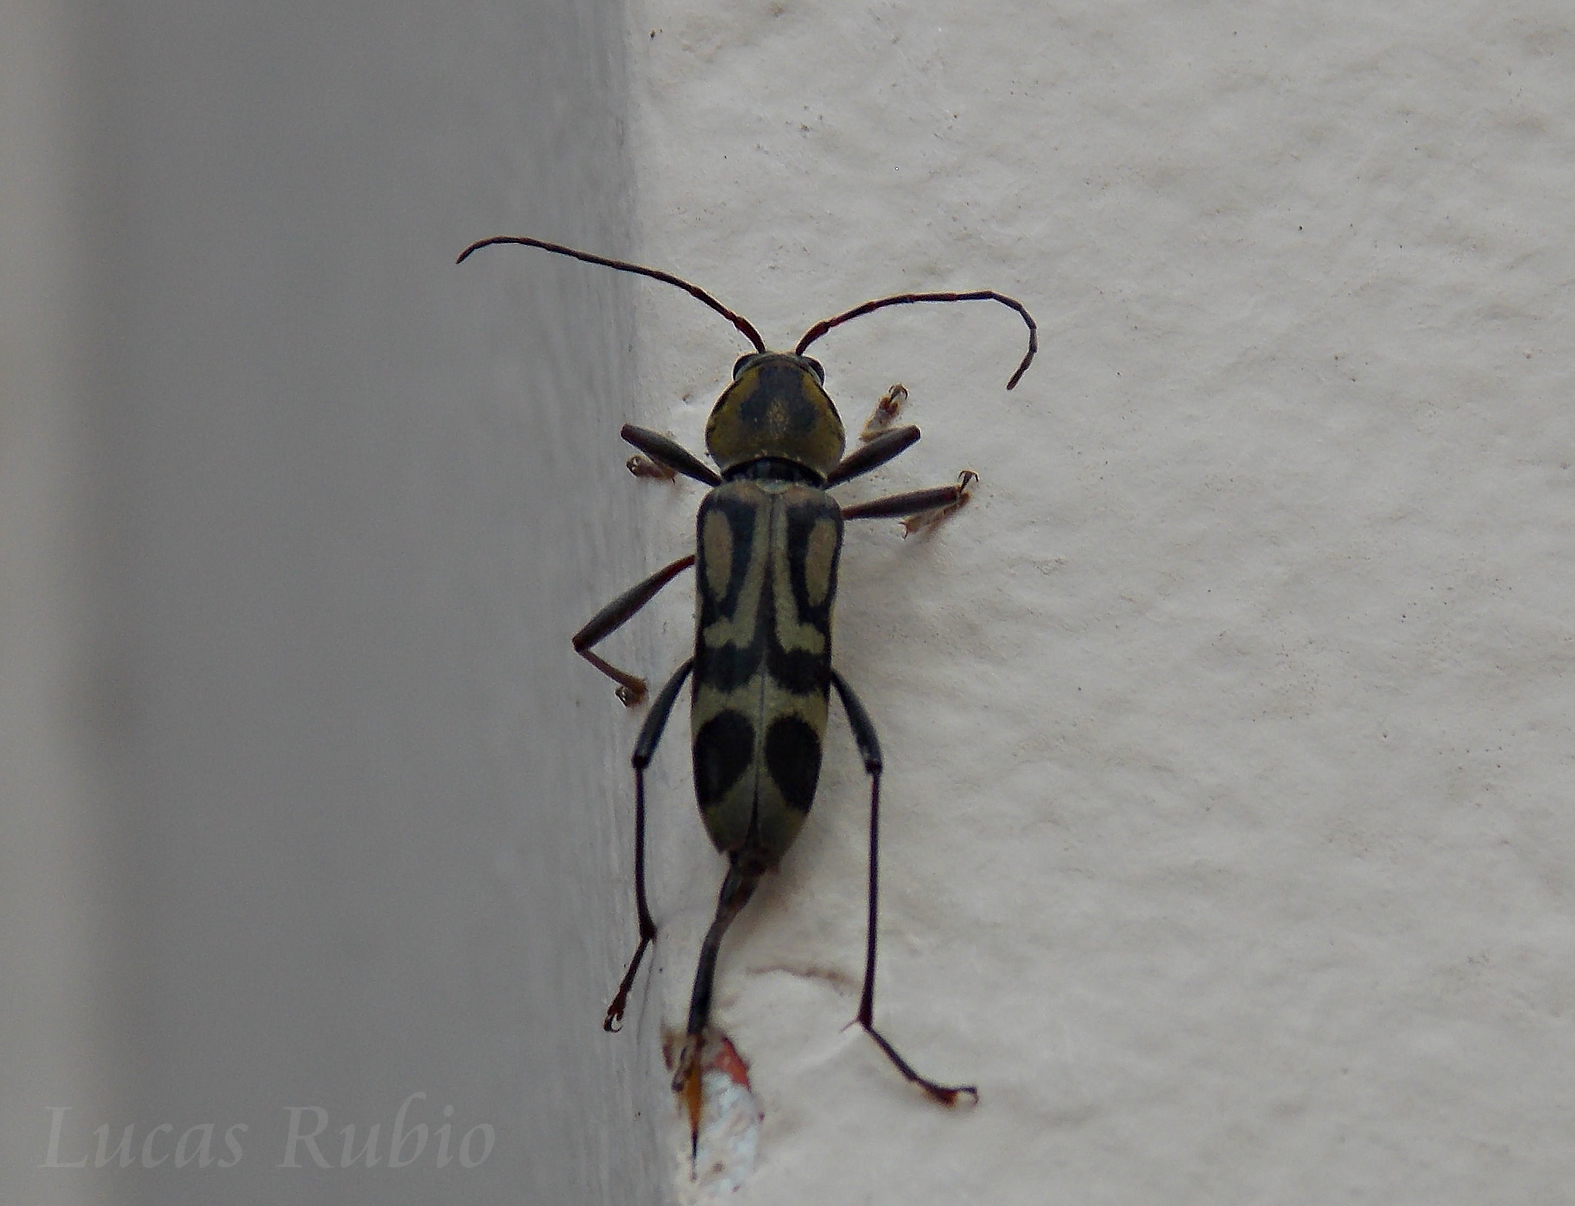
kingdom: Animalia
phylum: Arthropoda
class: Insecta
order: Coleoptera
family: Cerambycidae
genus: Chlorophorus
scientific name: Chlorophorus annularis
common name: Bamboo longhorn beetle
